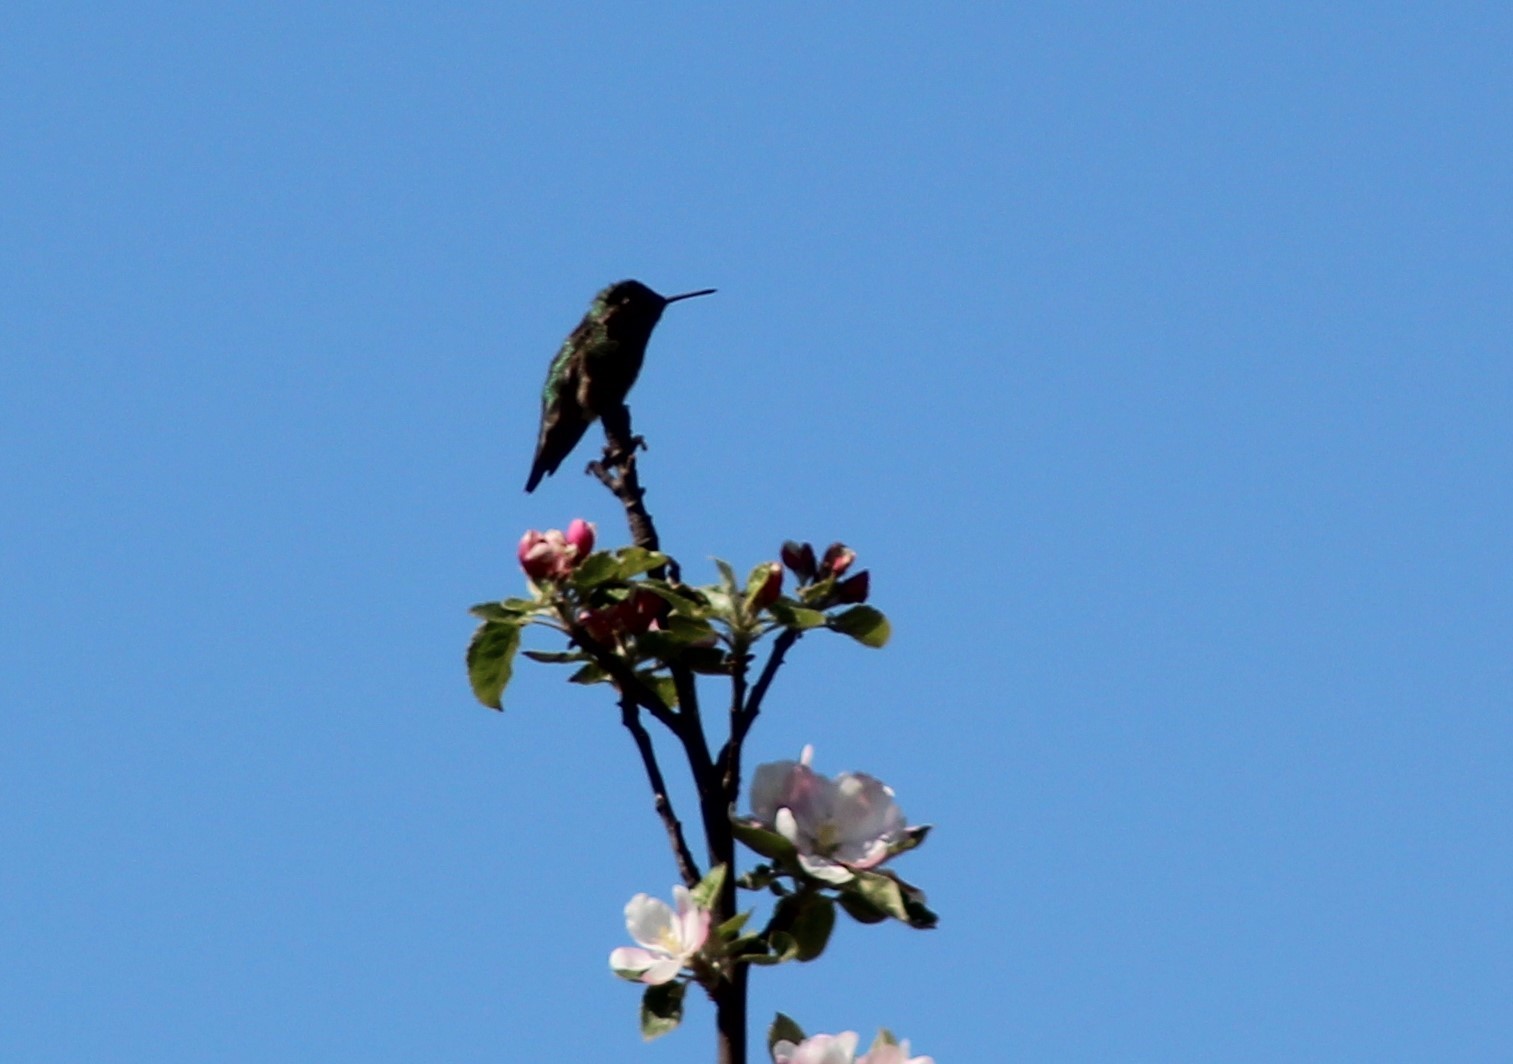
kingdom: Animalia
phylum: Chordata
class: Aves
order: Apodiformes
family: Trochilidae
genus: Calypte
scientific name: Calypte anna
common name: Anna's hummingbird
